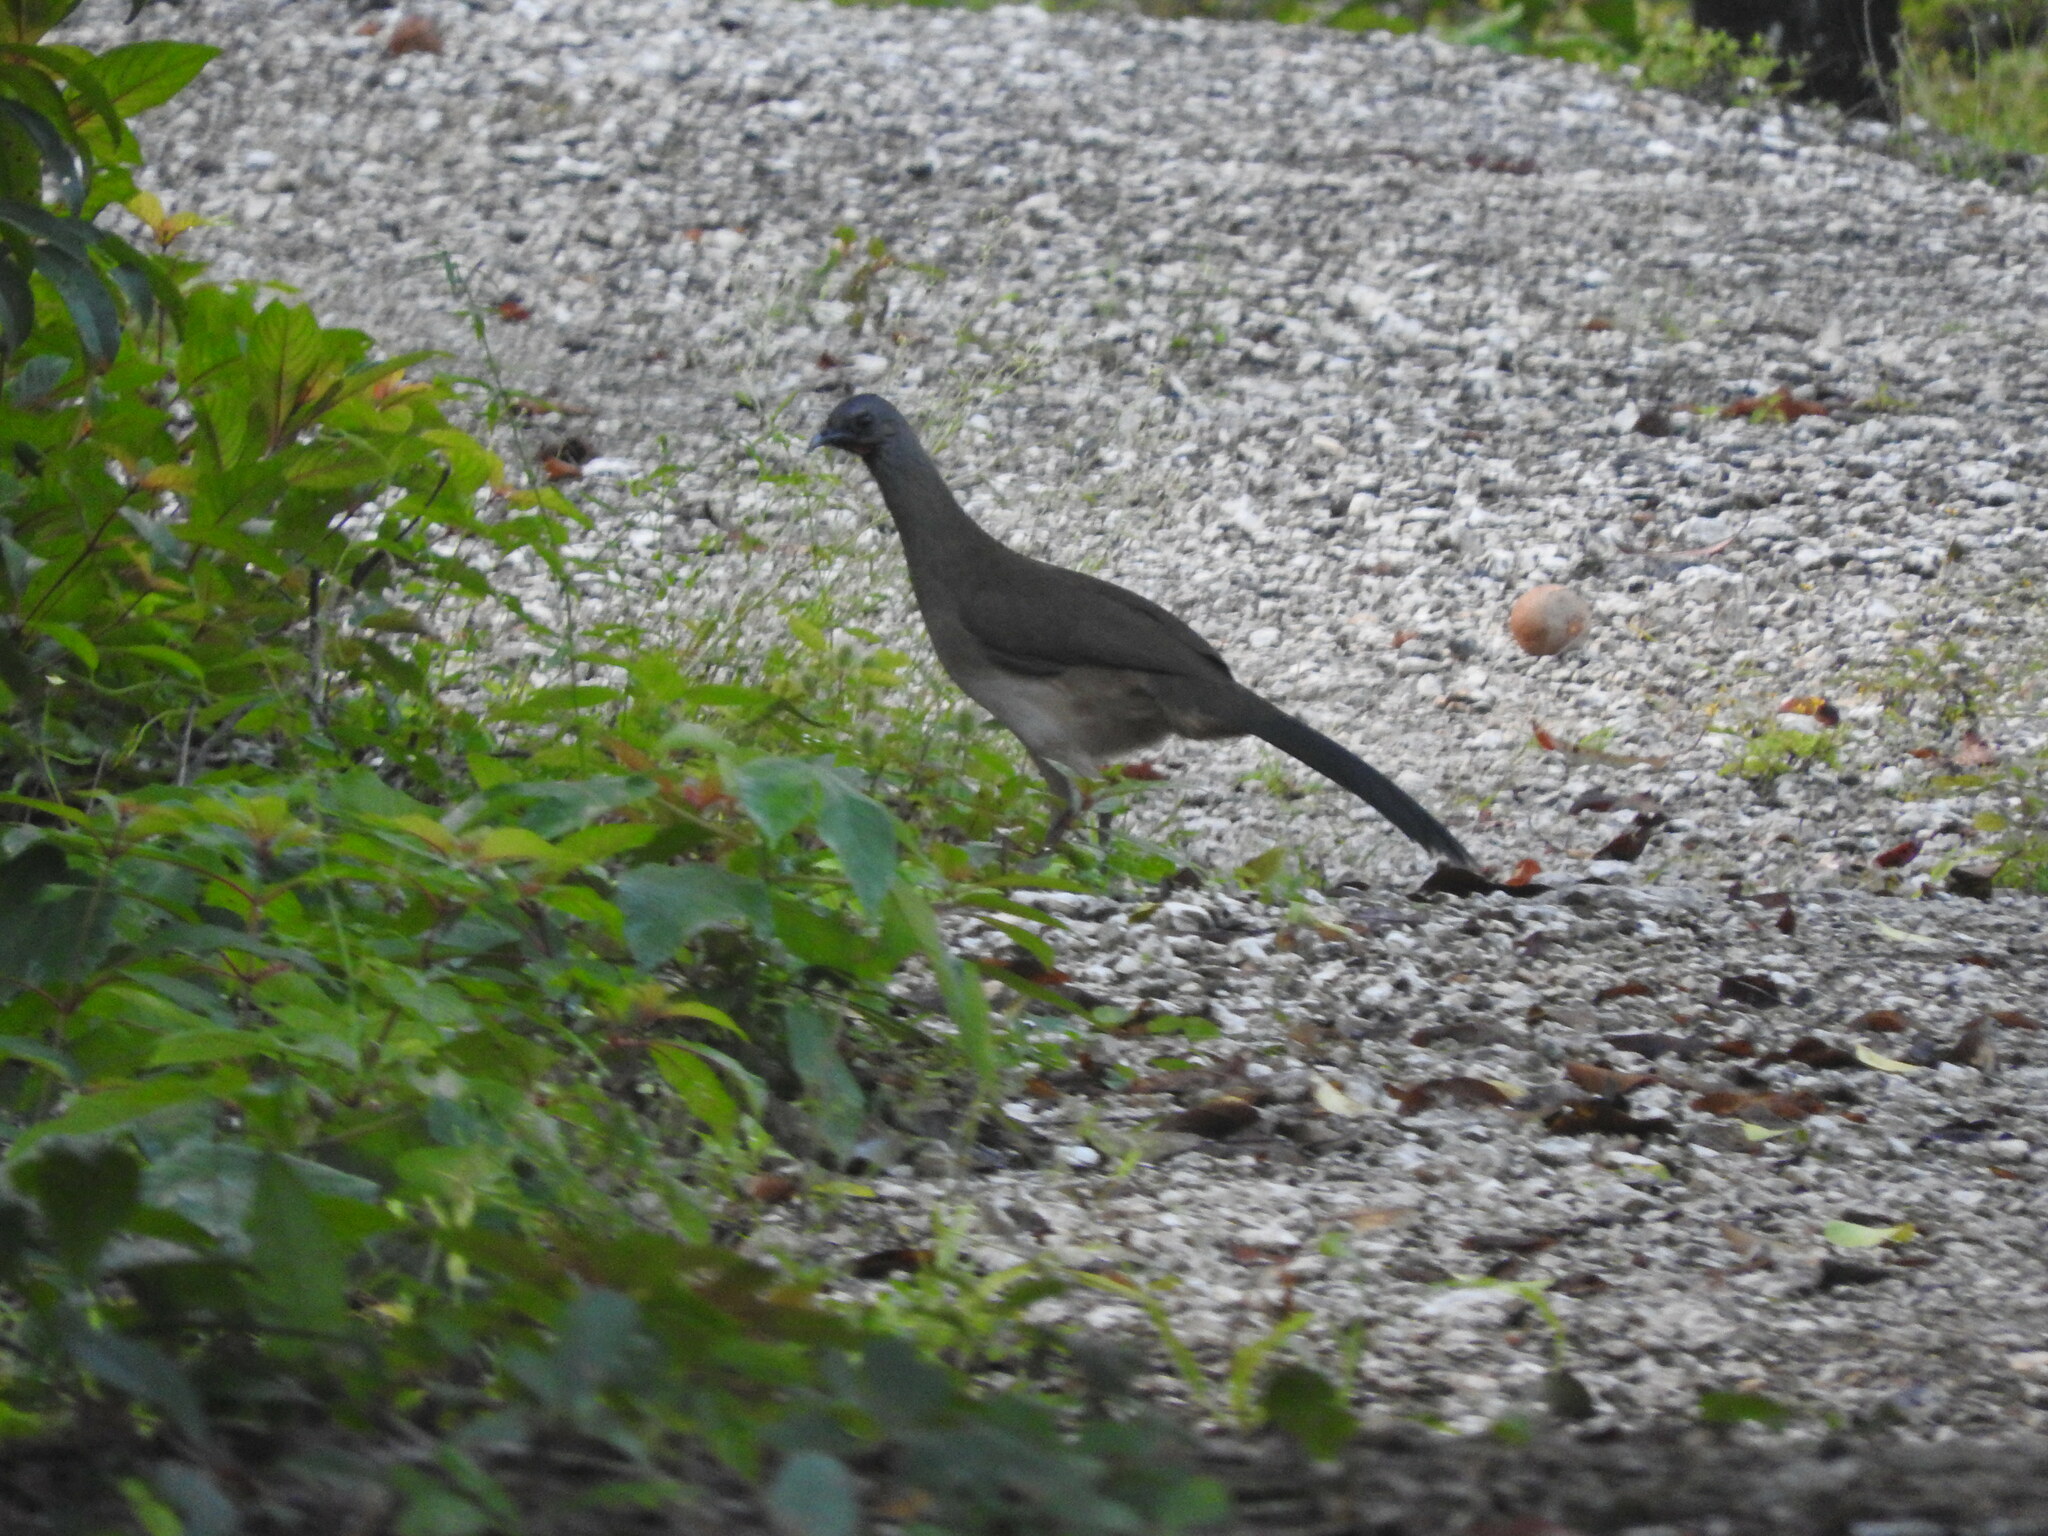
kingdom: Animalia
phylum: Chordata
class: Aves
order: Galliformes
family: Cracidae
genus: Ortalis
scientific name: Ortalis vetula
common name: Plain chachalaca
